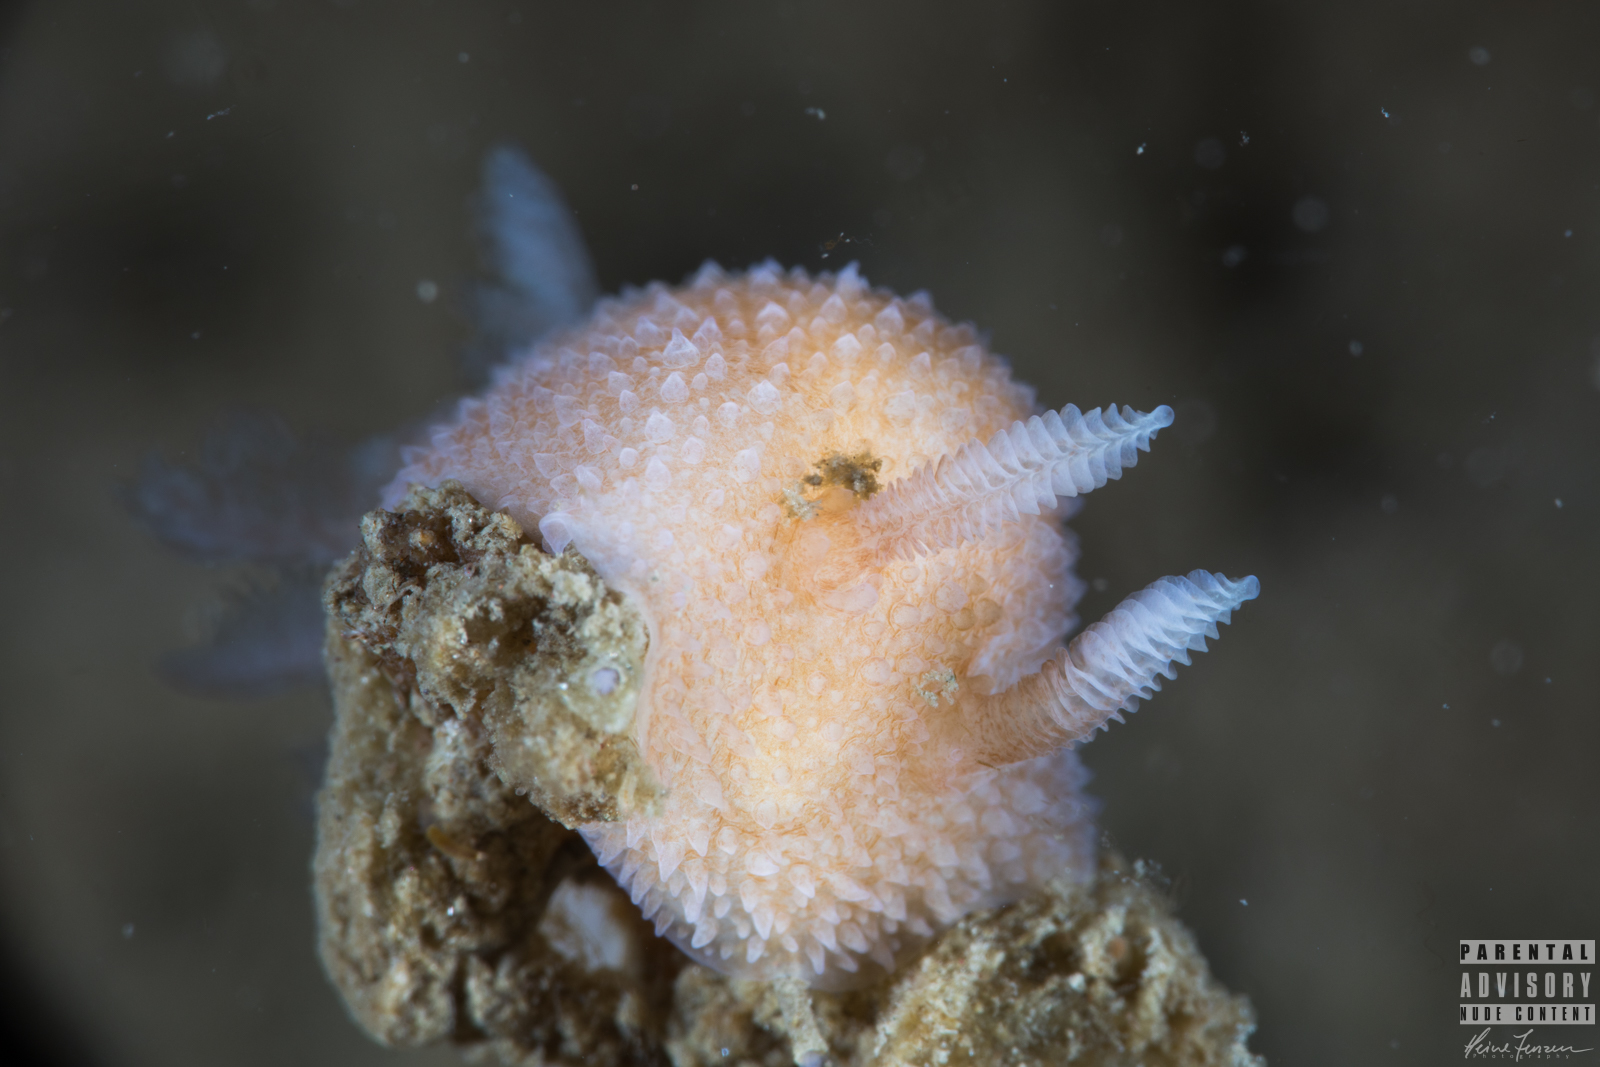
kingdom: Animalia
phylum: Mollusca
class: Gastropoda
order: Nudibranchia
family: Onchidorididae
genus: Acanthodoris
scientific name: Acanthodoris pilosa
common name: Hairy spiny doris
